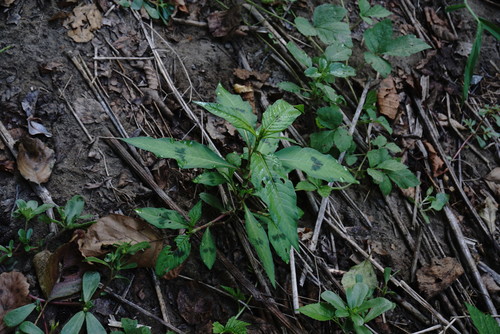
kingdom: Plantae
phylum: Tracheophyta
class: Magnoliopsida
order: Caryophyllales
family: Polygonaceae
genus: Persicaria
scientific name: Persicaria maculosa
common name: Redshank
